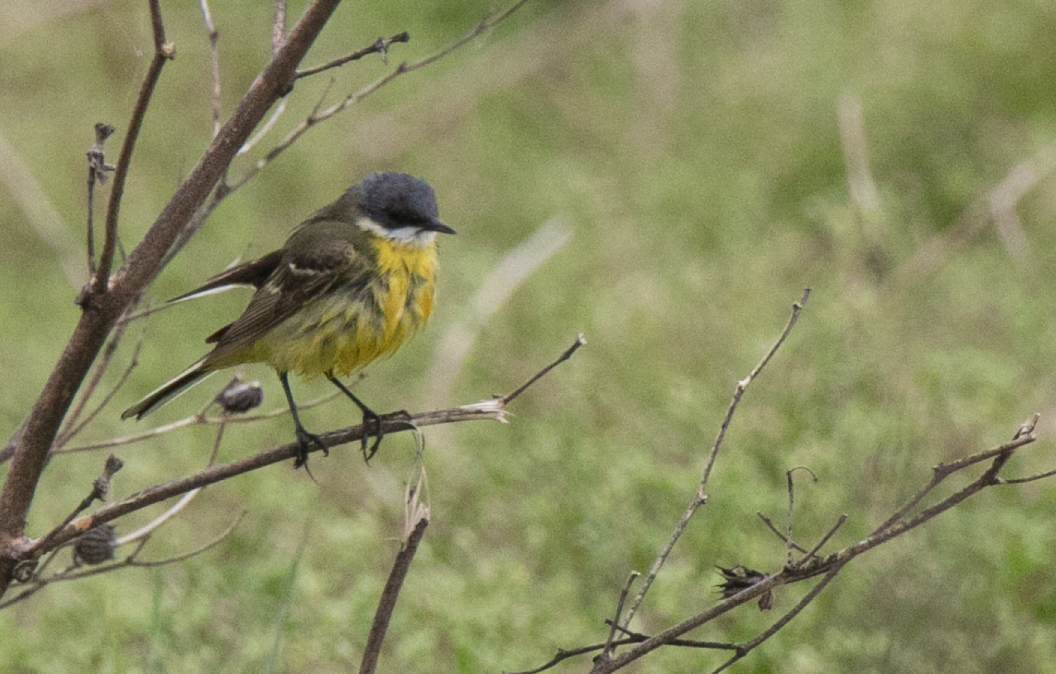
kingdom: Animalia
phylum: Chordata
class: Aves
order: Passeriformes
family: Motacillidae
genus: Motacilla
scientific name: Motacilla flava
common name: Western yellow wagtail
